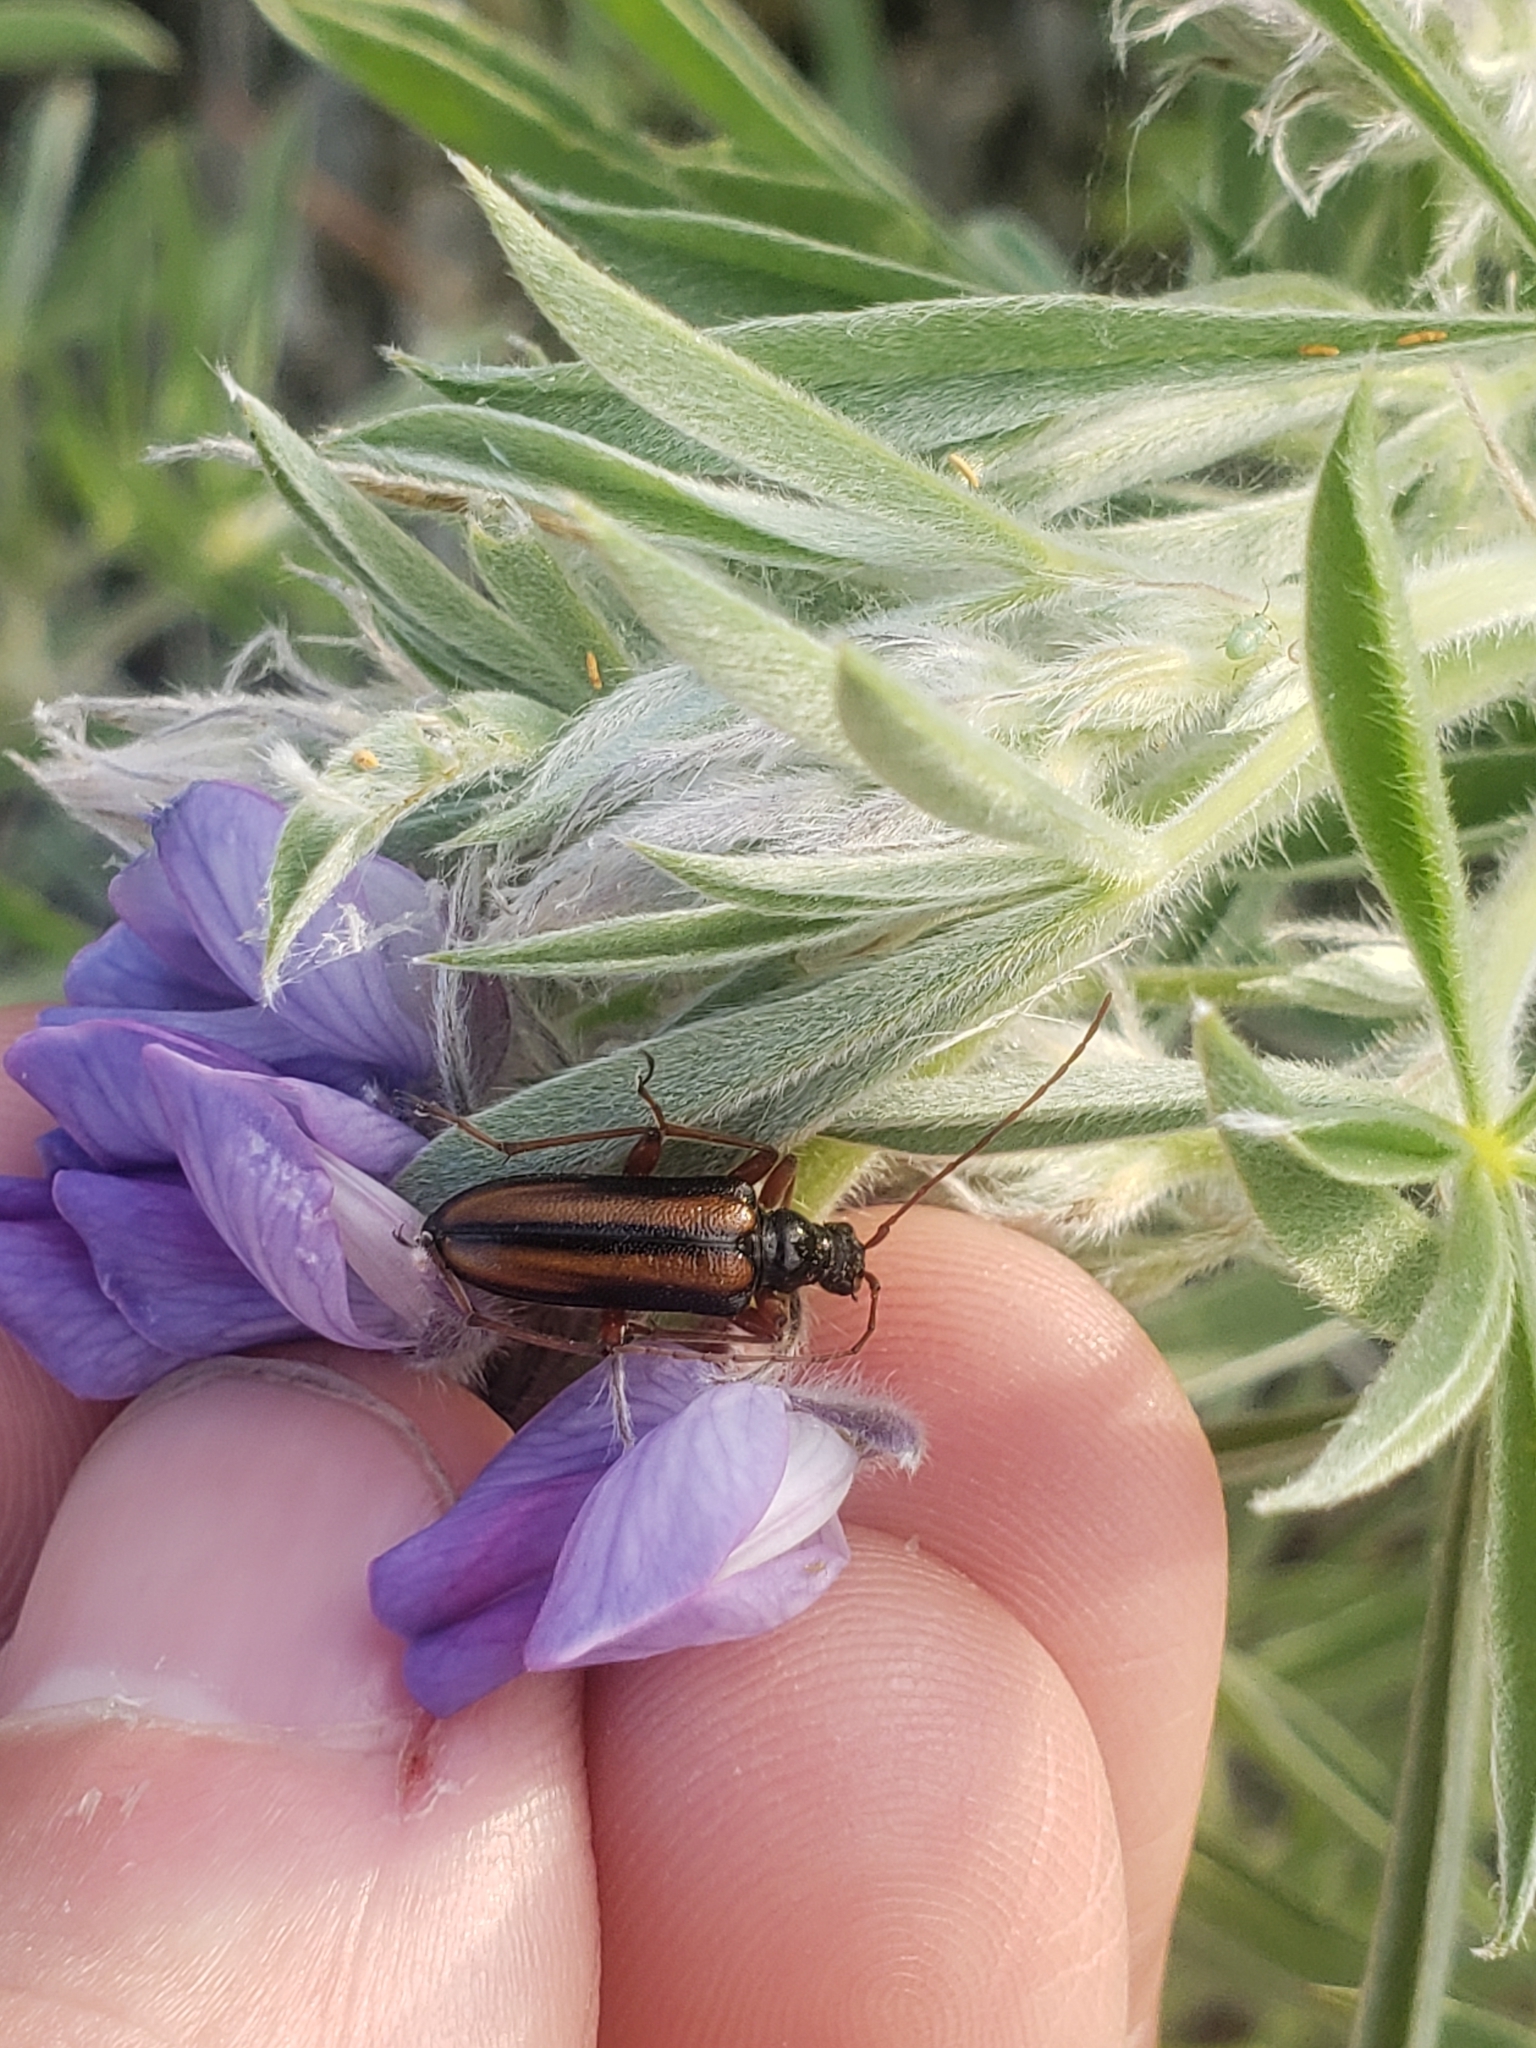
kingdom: Animalia
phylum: Arthropoda
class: Insecta
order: Coleoptera
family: Cerambycidae
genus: Cortodera
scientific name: Cortodera longicornis
